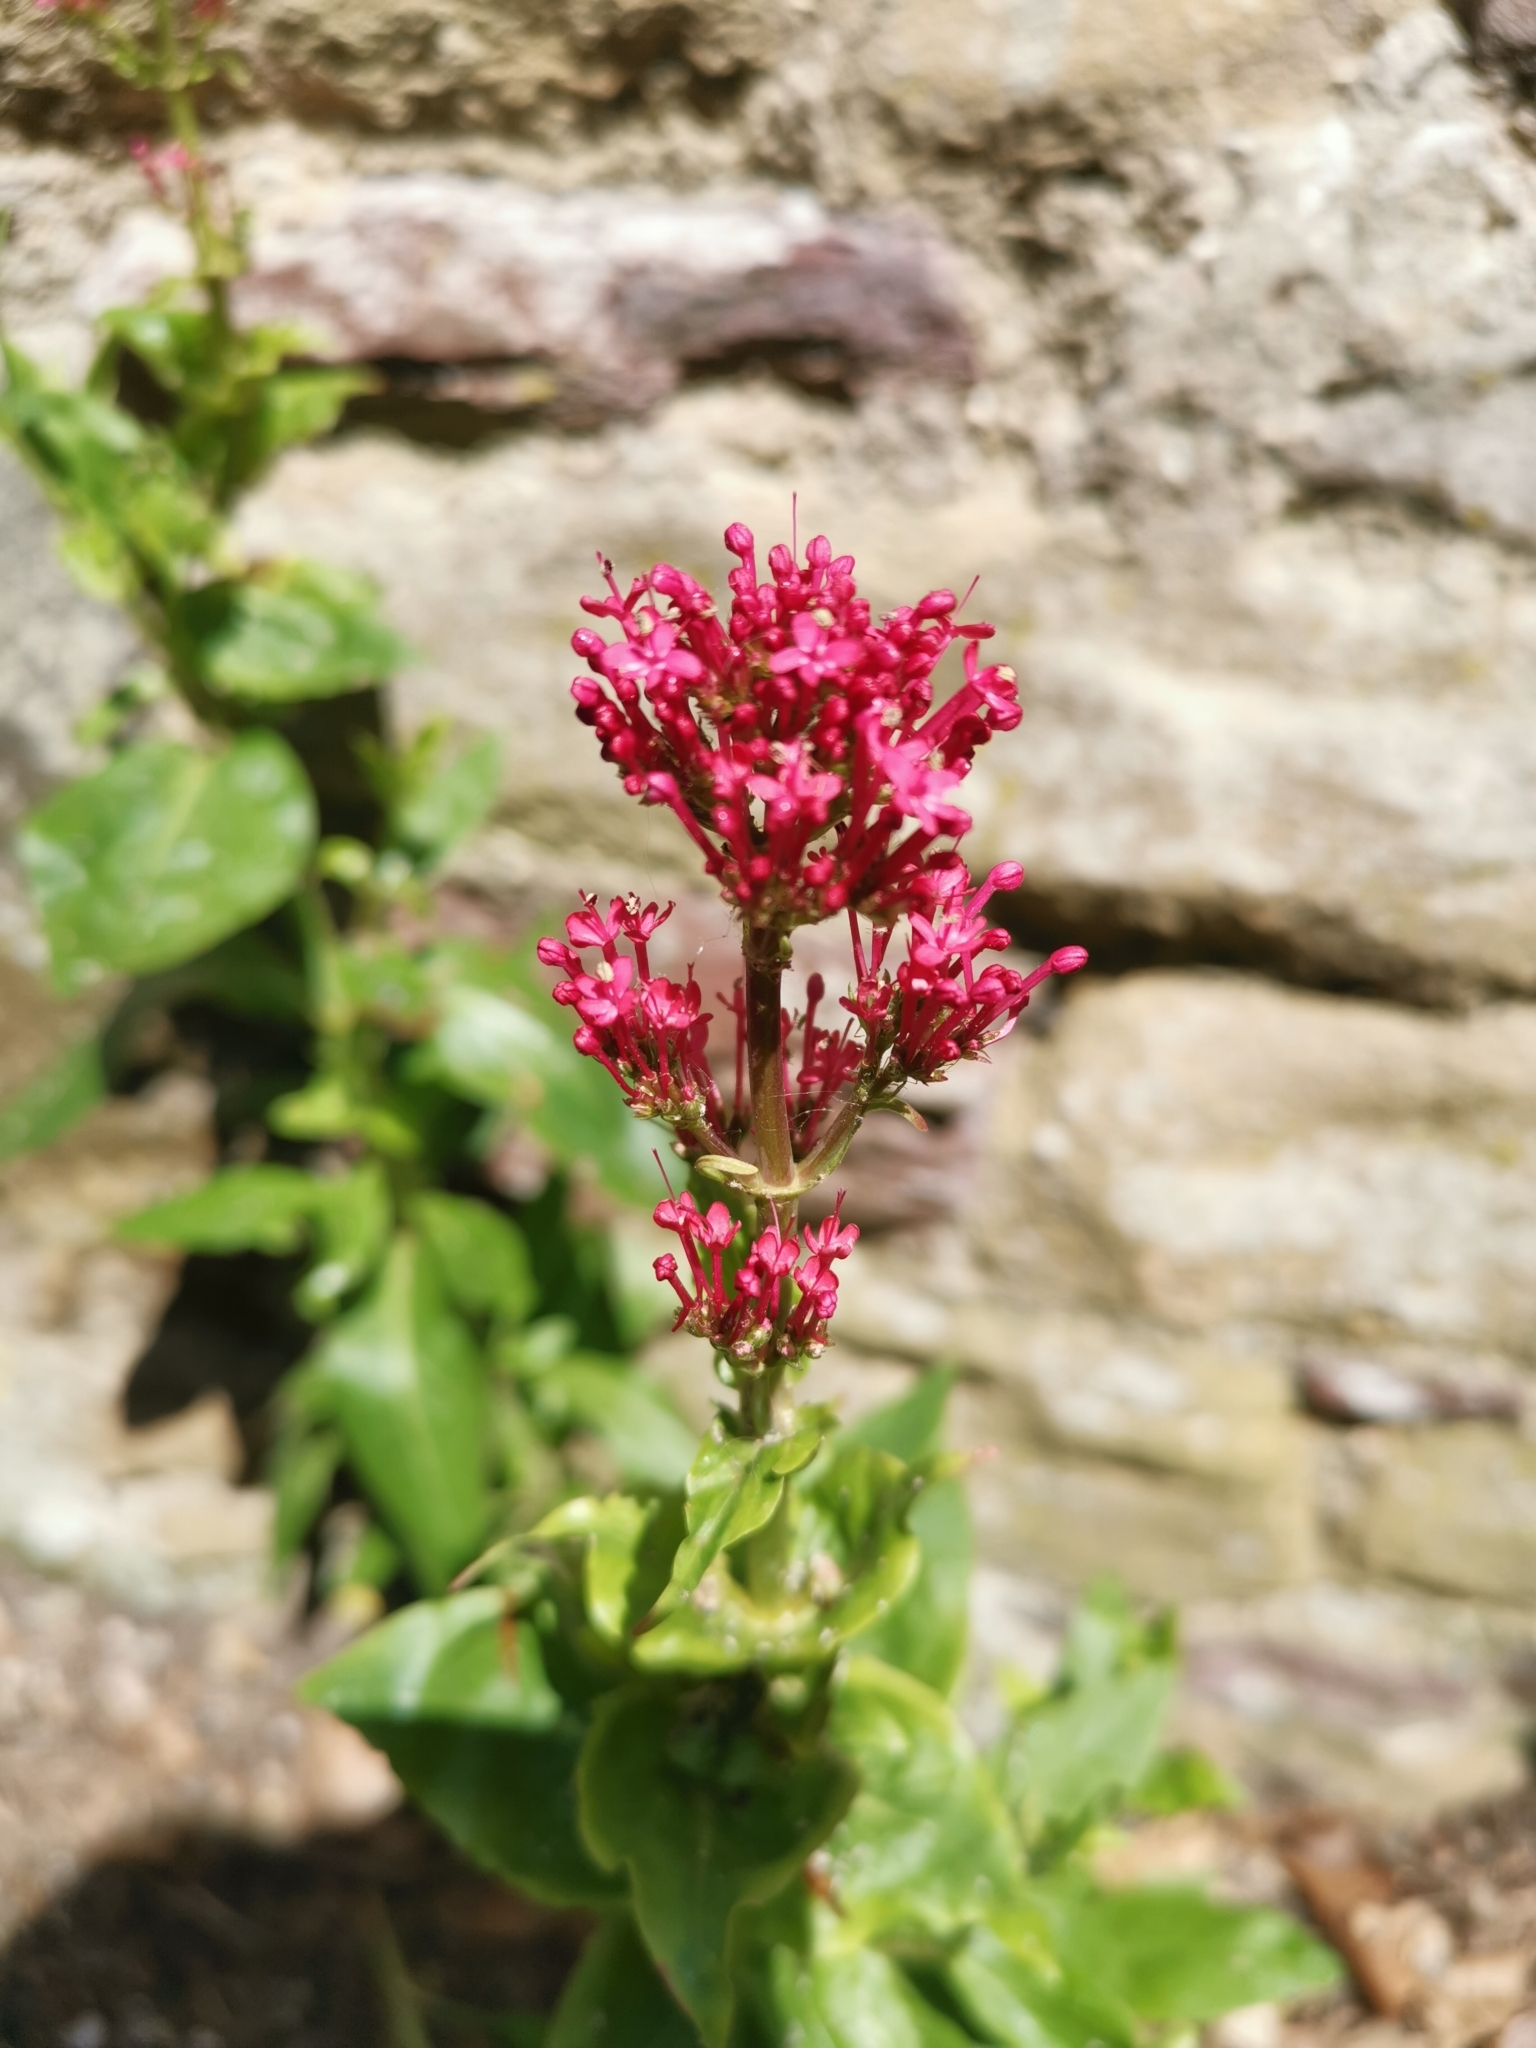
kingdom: Plantae
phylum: Tracheophyta
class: Magnoliopsida
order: Dipsacales
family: Caprifoliaceae
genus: Centranthus
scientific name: Centranthus ruber
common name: Red valerian
